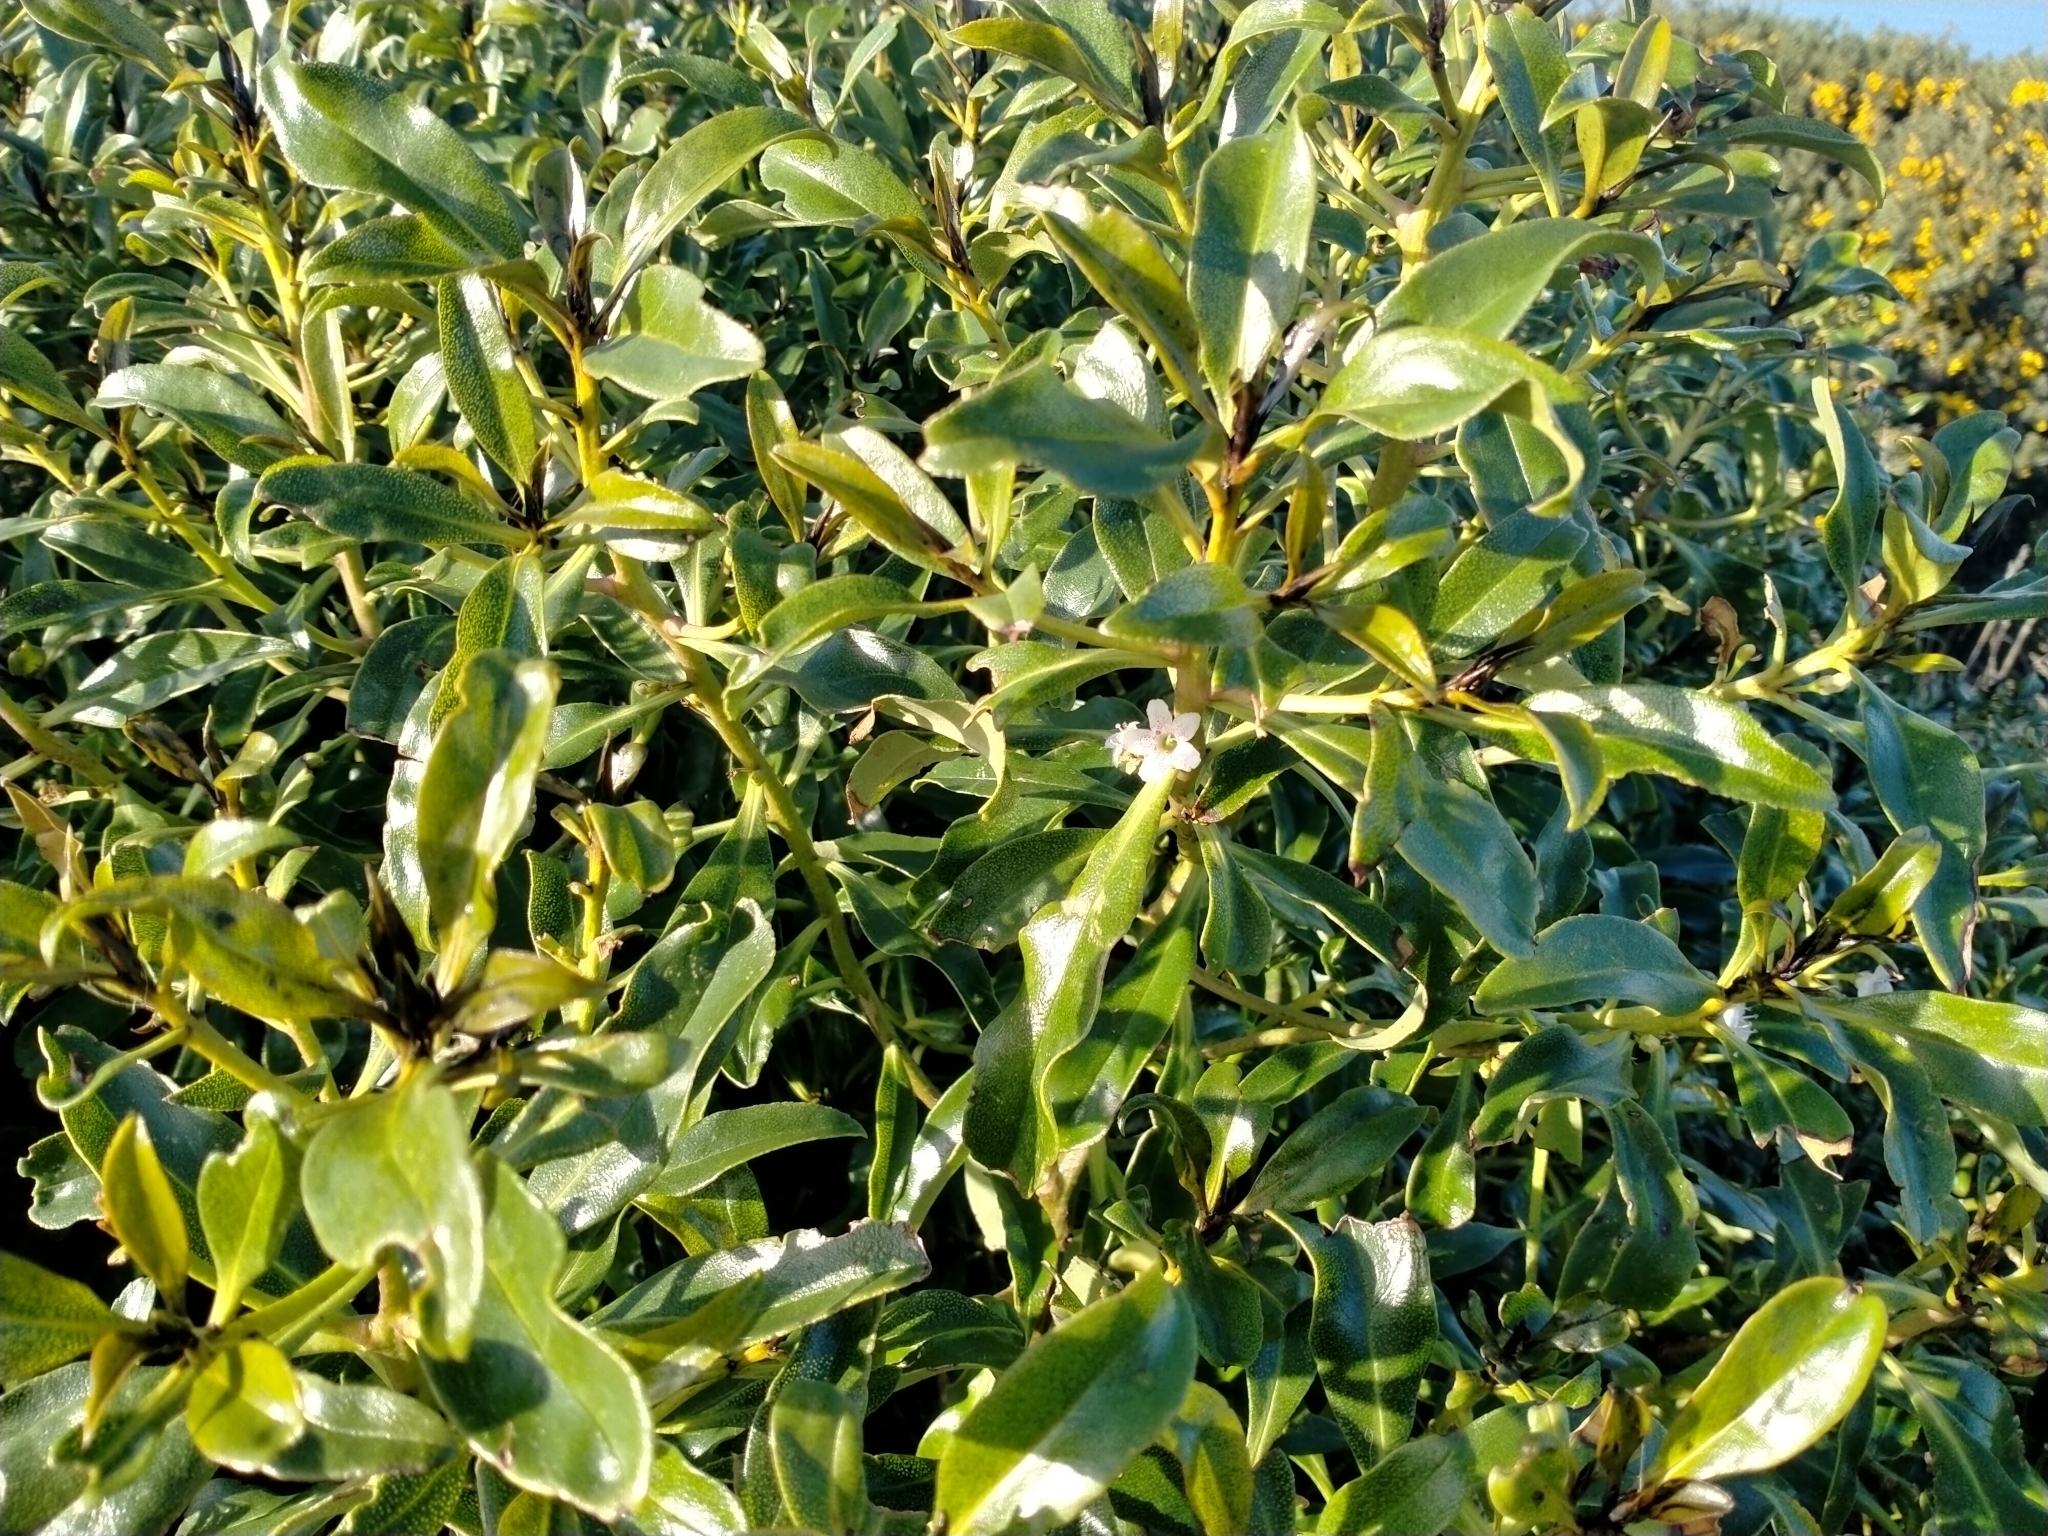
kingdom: Plantae
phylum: Tracheophyta
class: Magnoliopsida
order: Lamiales
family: Scrophulariaceae
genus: Myoporum
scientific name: Myoporum laetum
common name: Ngaio tree
